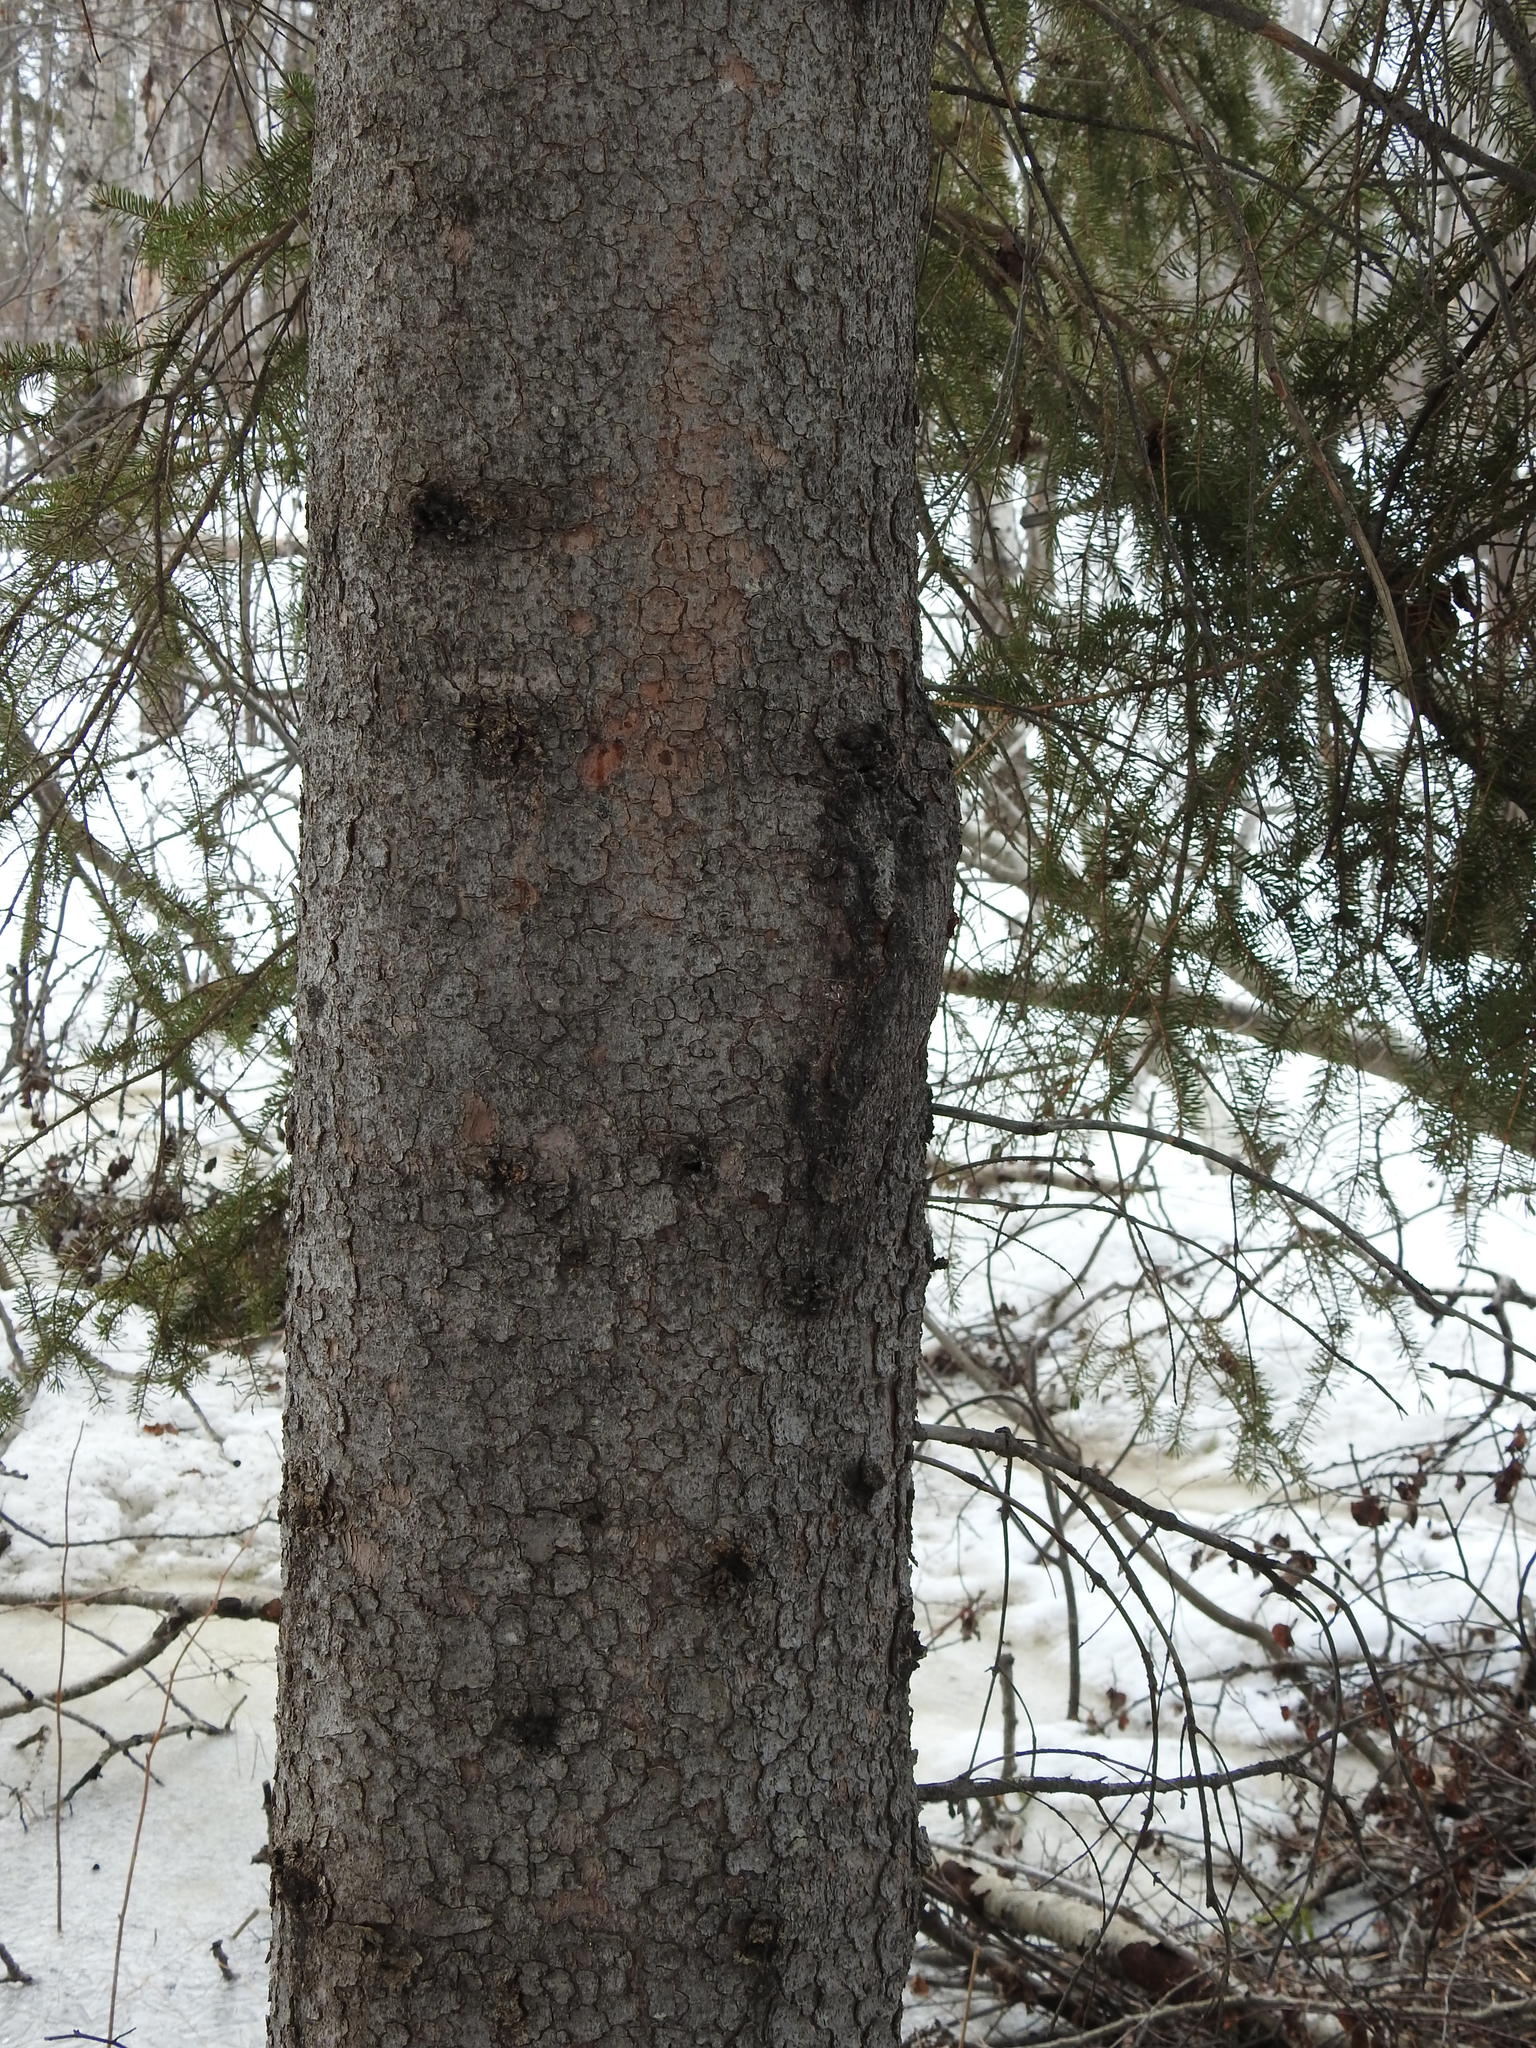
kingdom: Plantae
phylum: Tracheophyta
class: Pinopsida
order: Pinales
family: Pinaceae
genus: Picea
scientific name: Picea glauca
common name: White spruce
